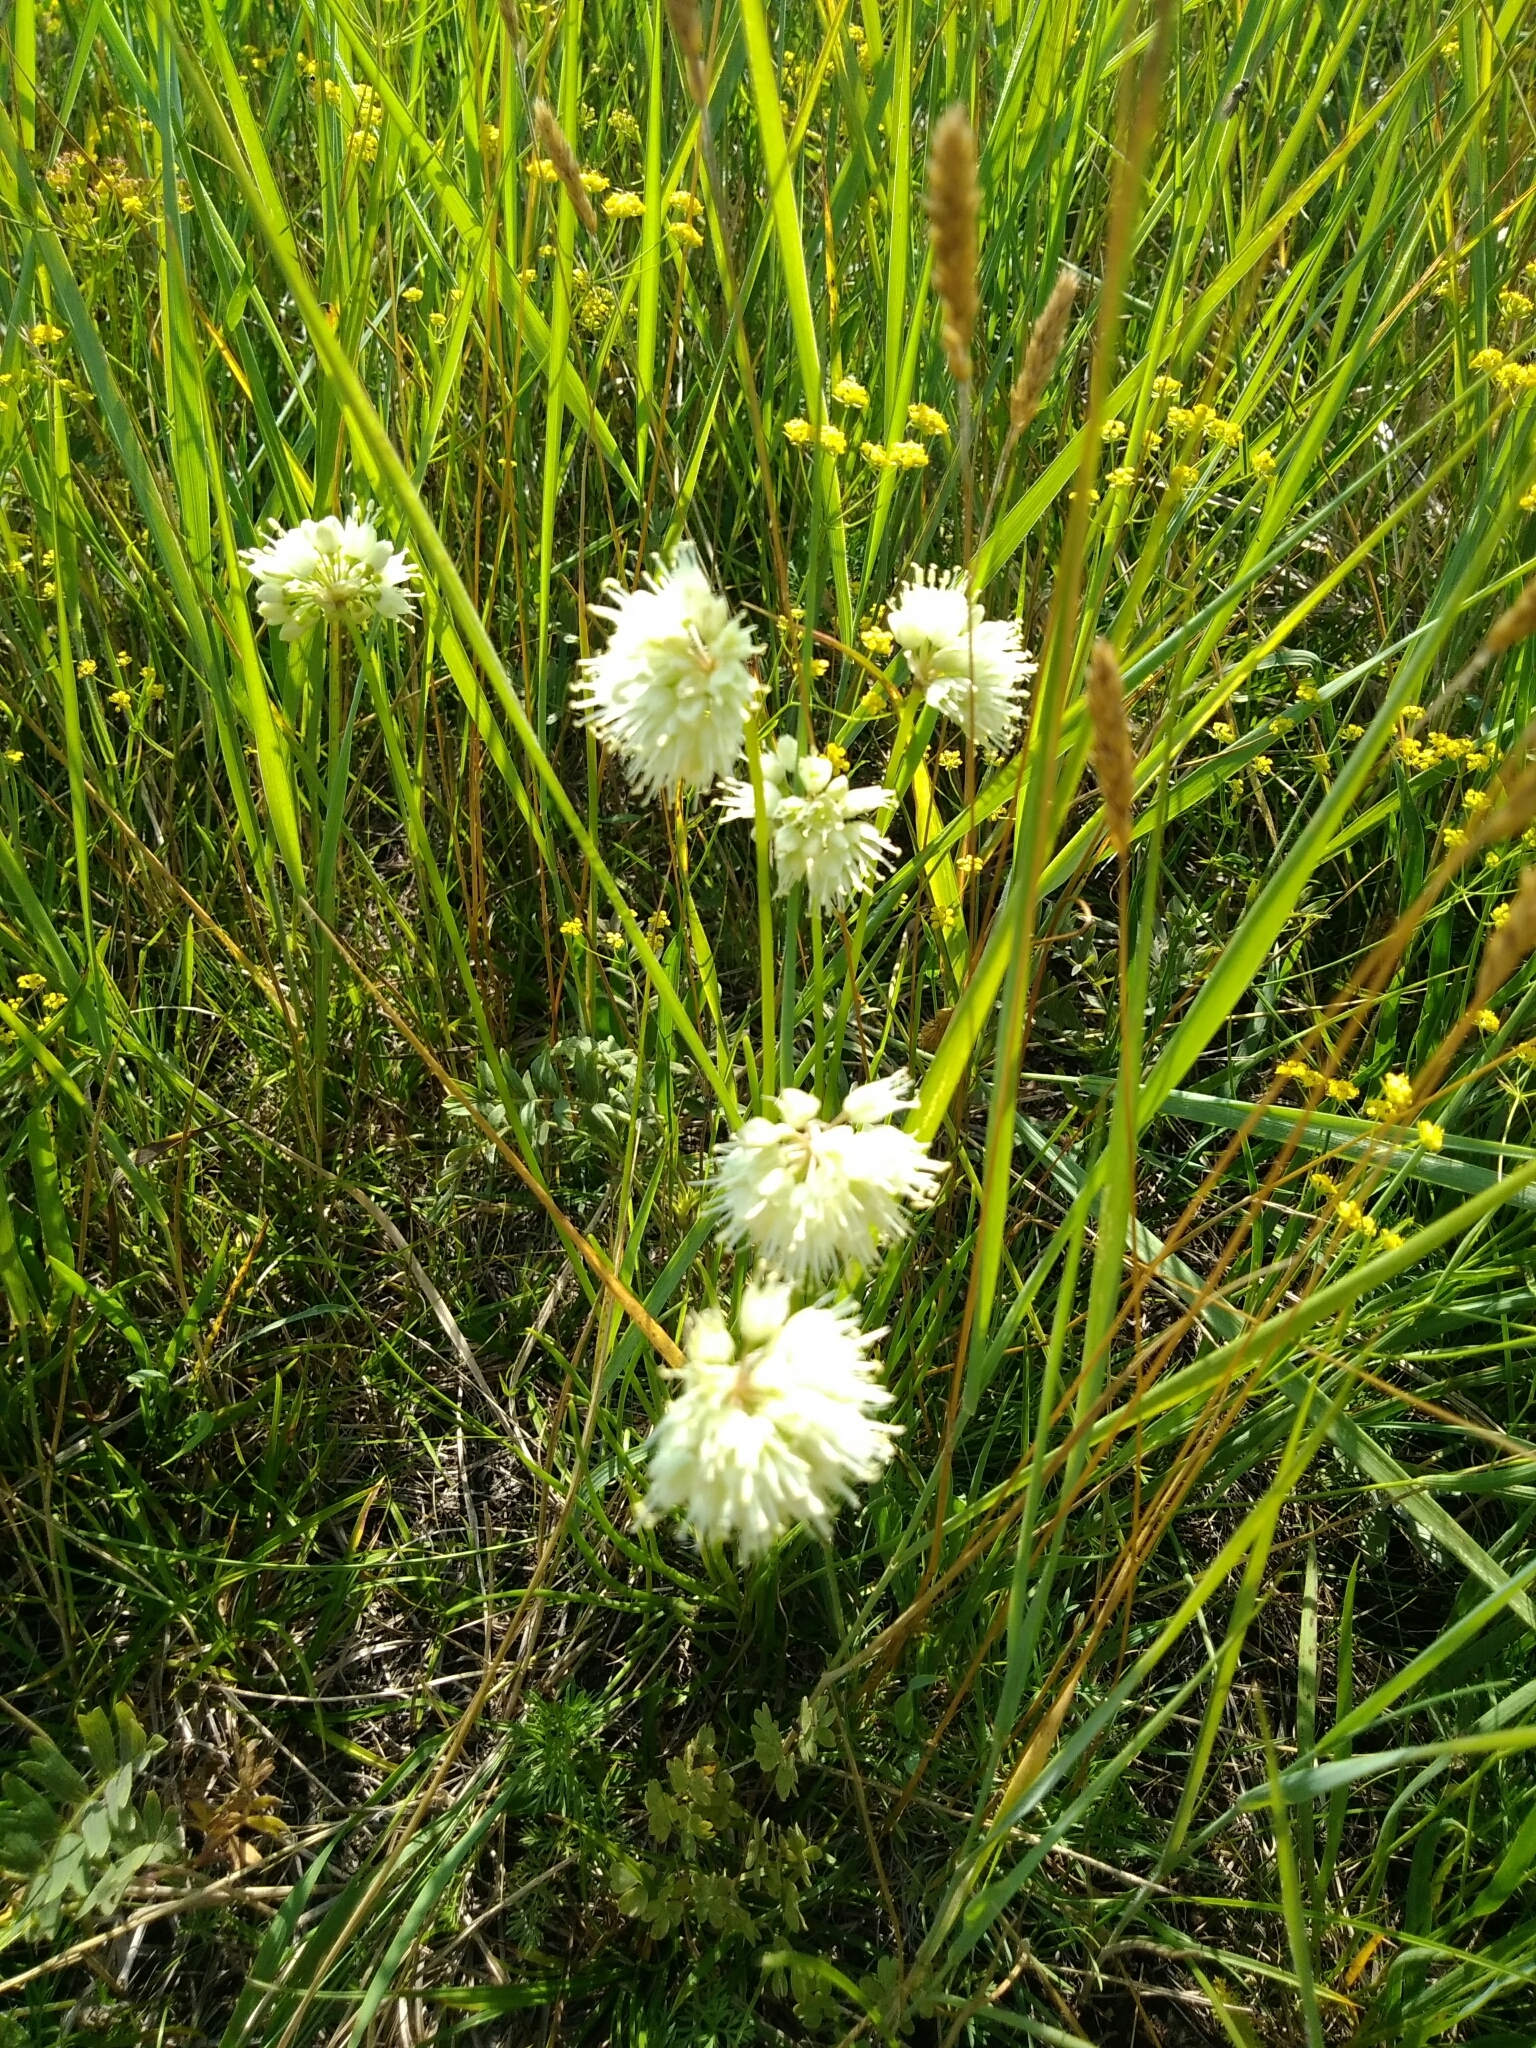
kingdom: Plantae
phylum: Tracheophyta
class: Liliopsida
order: Asparagales
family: Amaryllidaceae
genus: Allium
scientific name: Allium stellerianum
